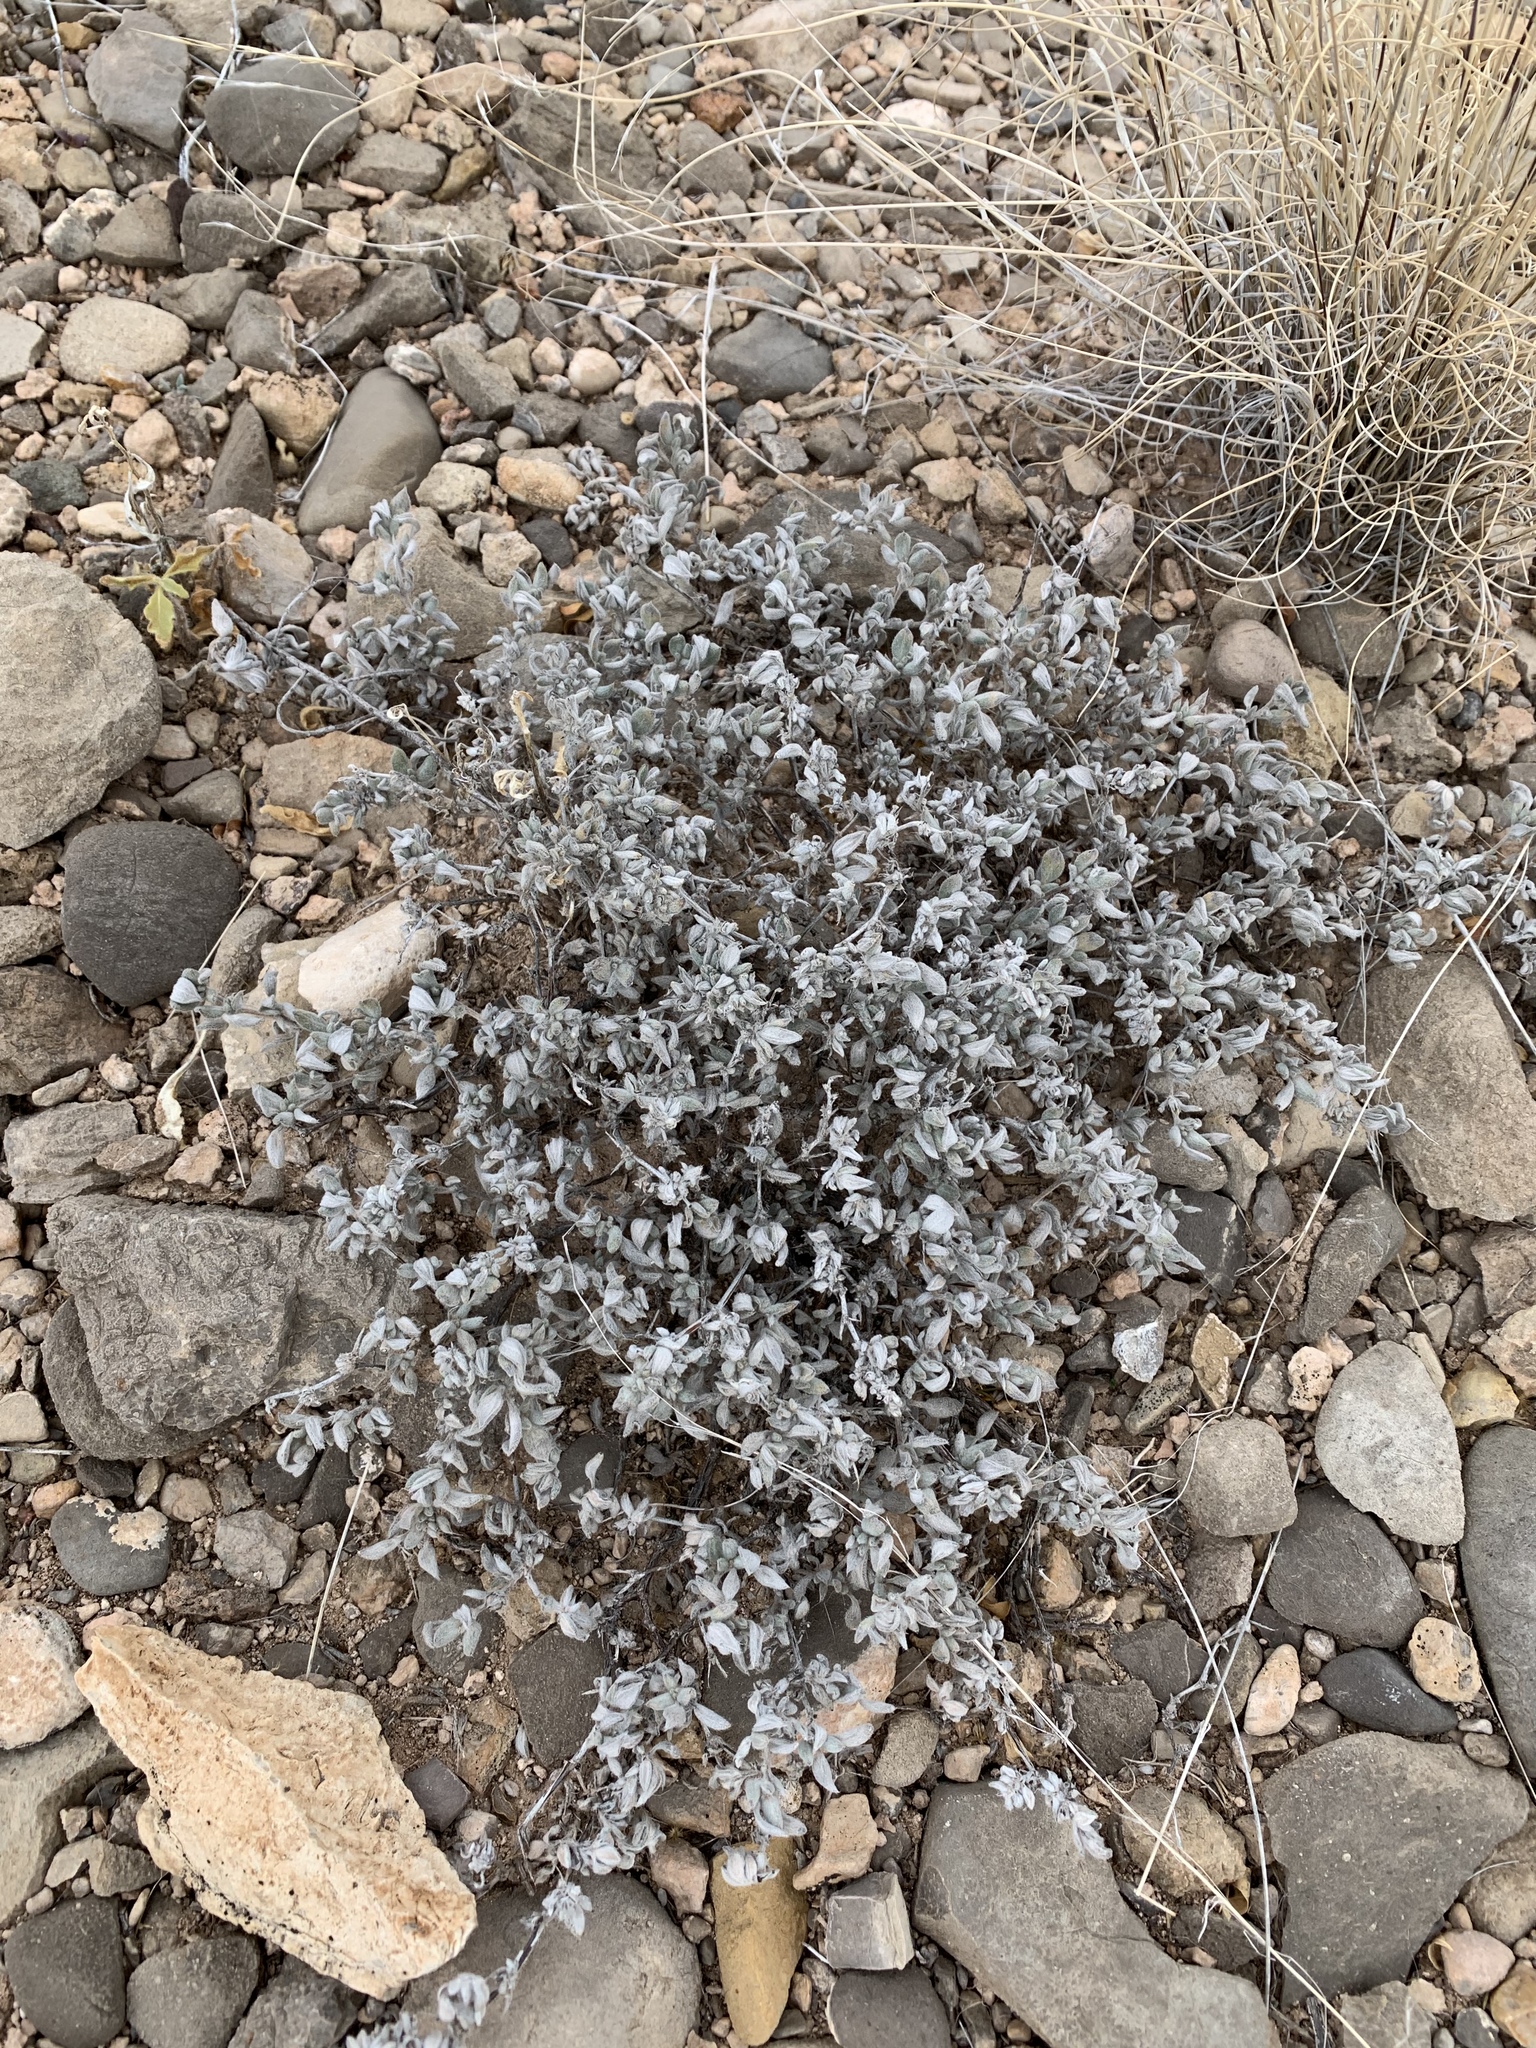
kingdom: Plantae
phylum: Tracheophyta
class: Magnoliopsida
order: Boraginales
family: Ehretiaceae
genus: Tiquilia
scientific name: Tiquilia canescens
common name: Hairy tiquilia
